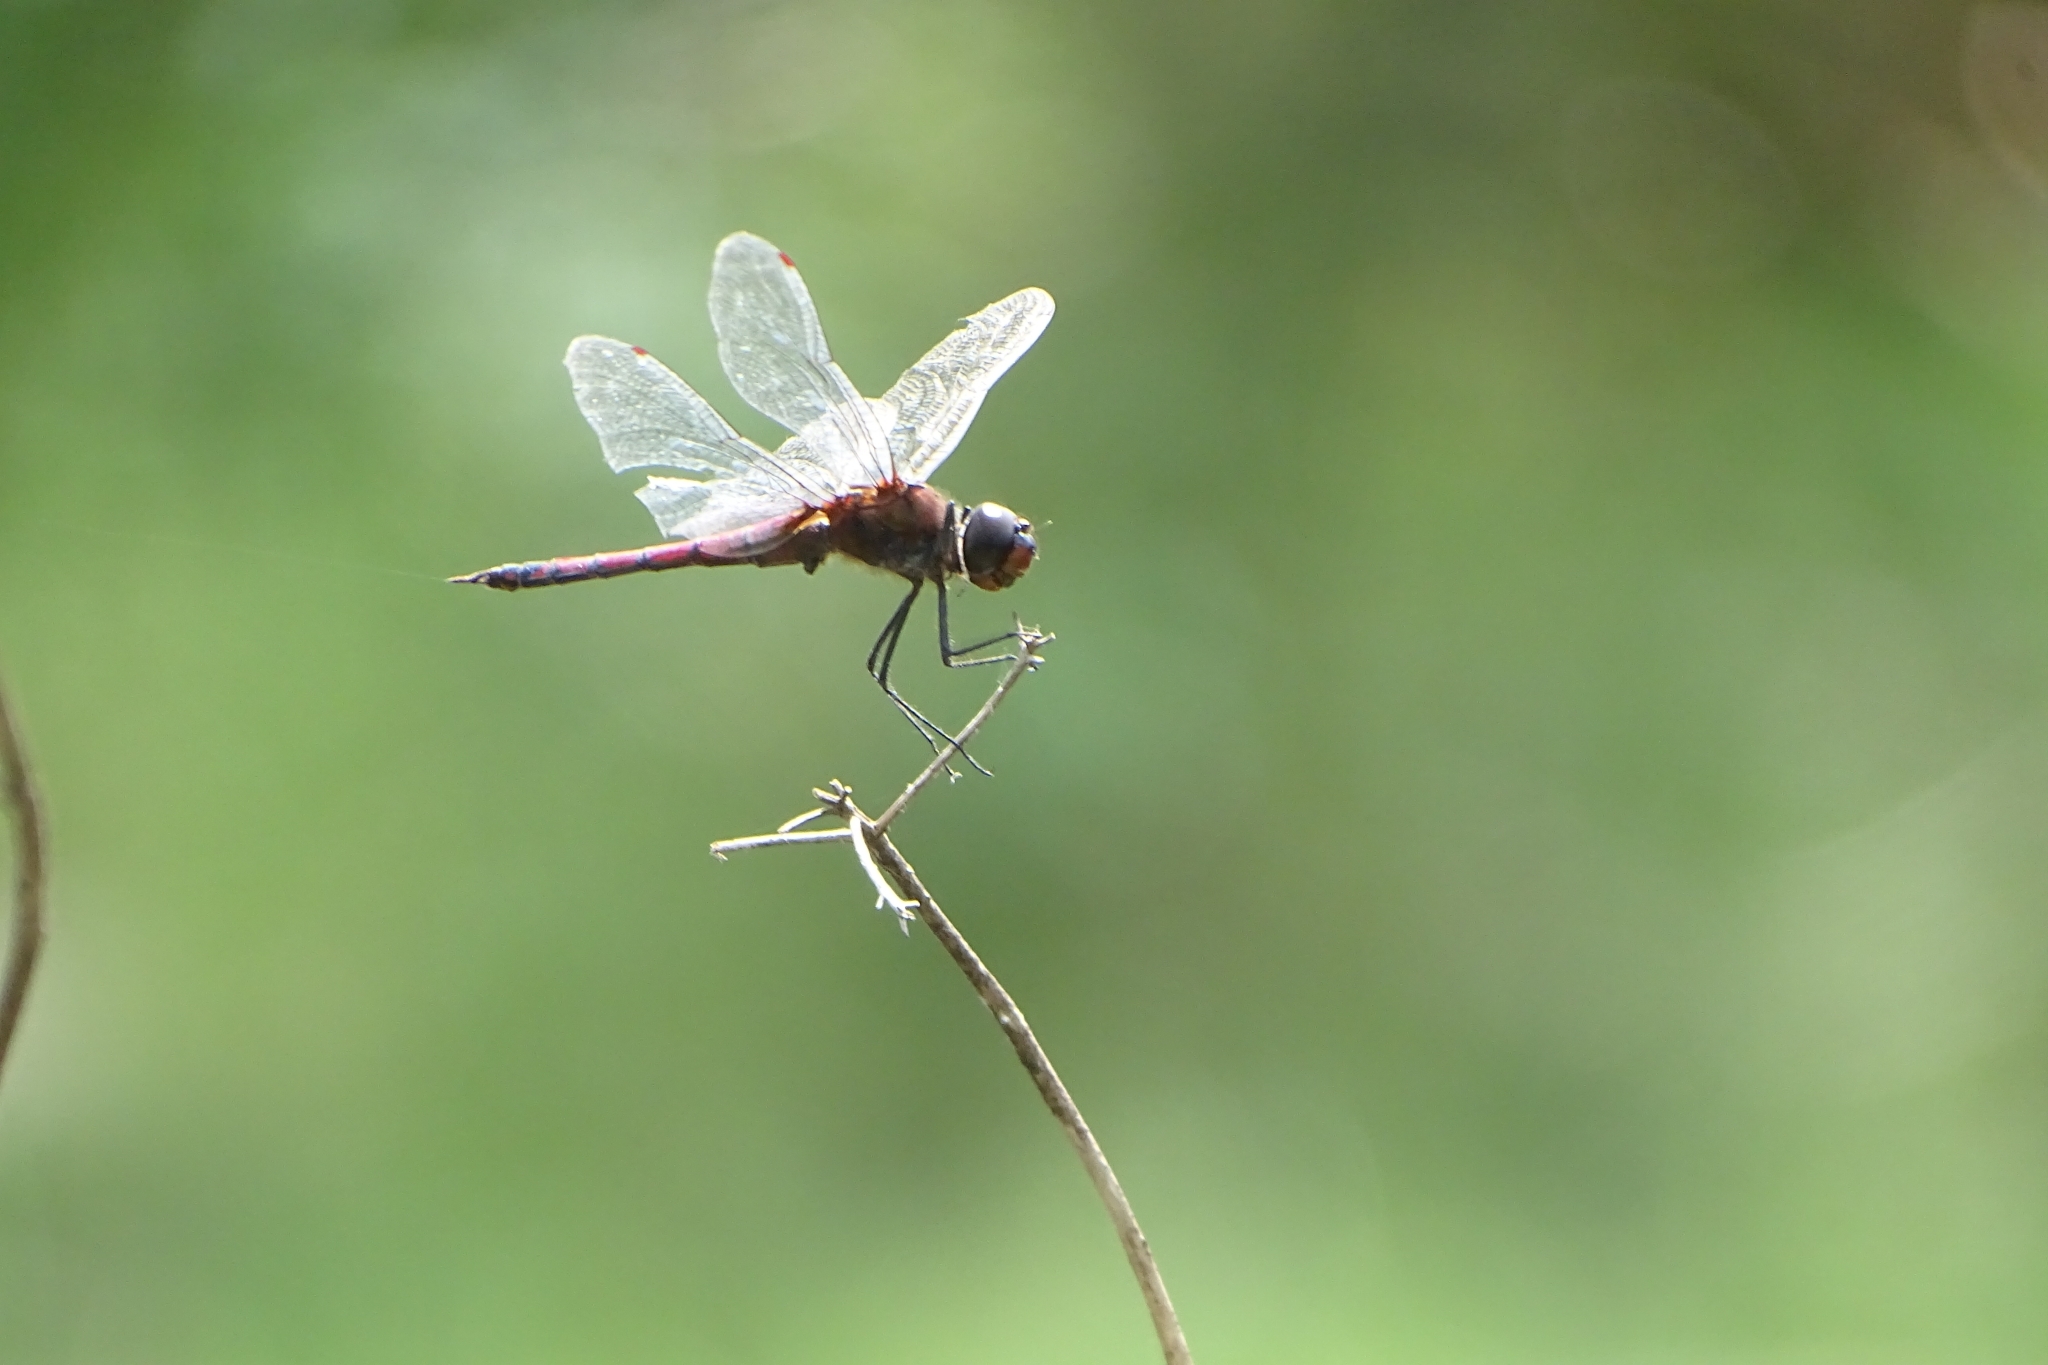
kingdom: Animalia
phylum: Arthropoda
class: Insecta
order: Odonata
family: Libellulidae
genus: Tramea
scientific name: Tramea limbata
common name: Ferruginous glider
